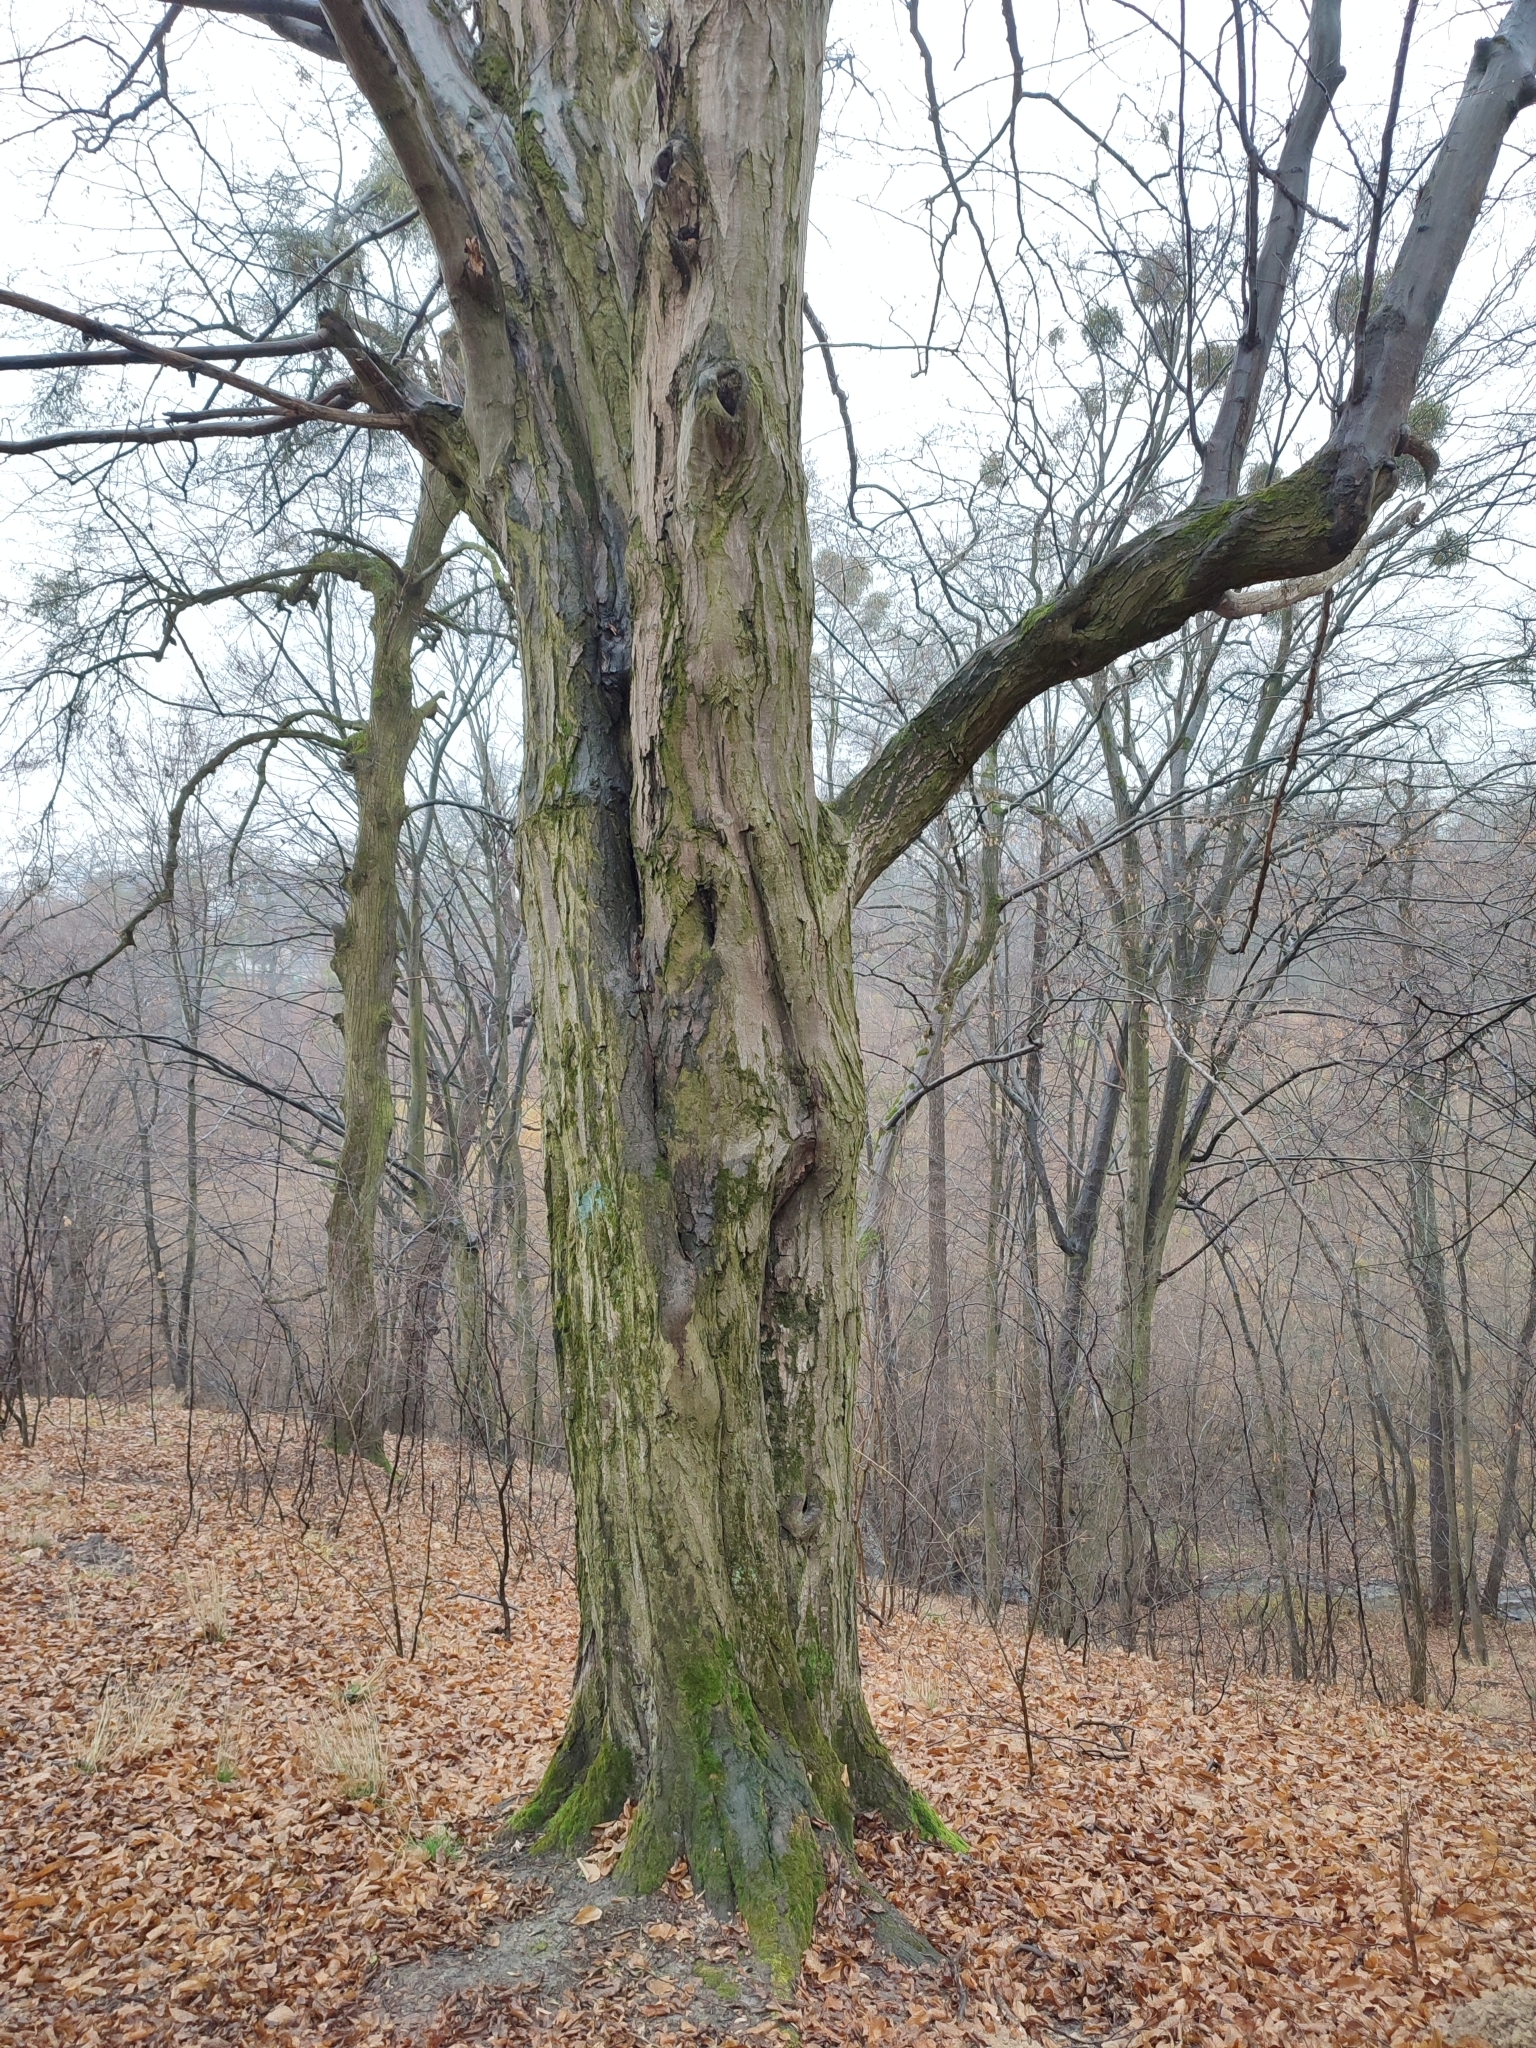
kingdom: Plantae
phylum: Tracheophyta
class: Magnoliopsida
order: Fagales
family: Betulaceae
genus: Carpinus
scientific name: Carpinus betulus
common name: Hornbeam
